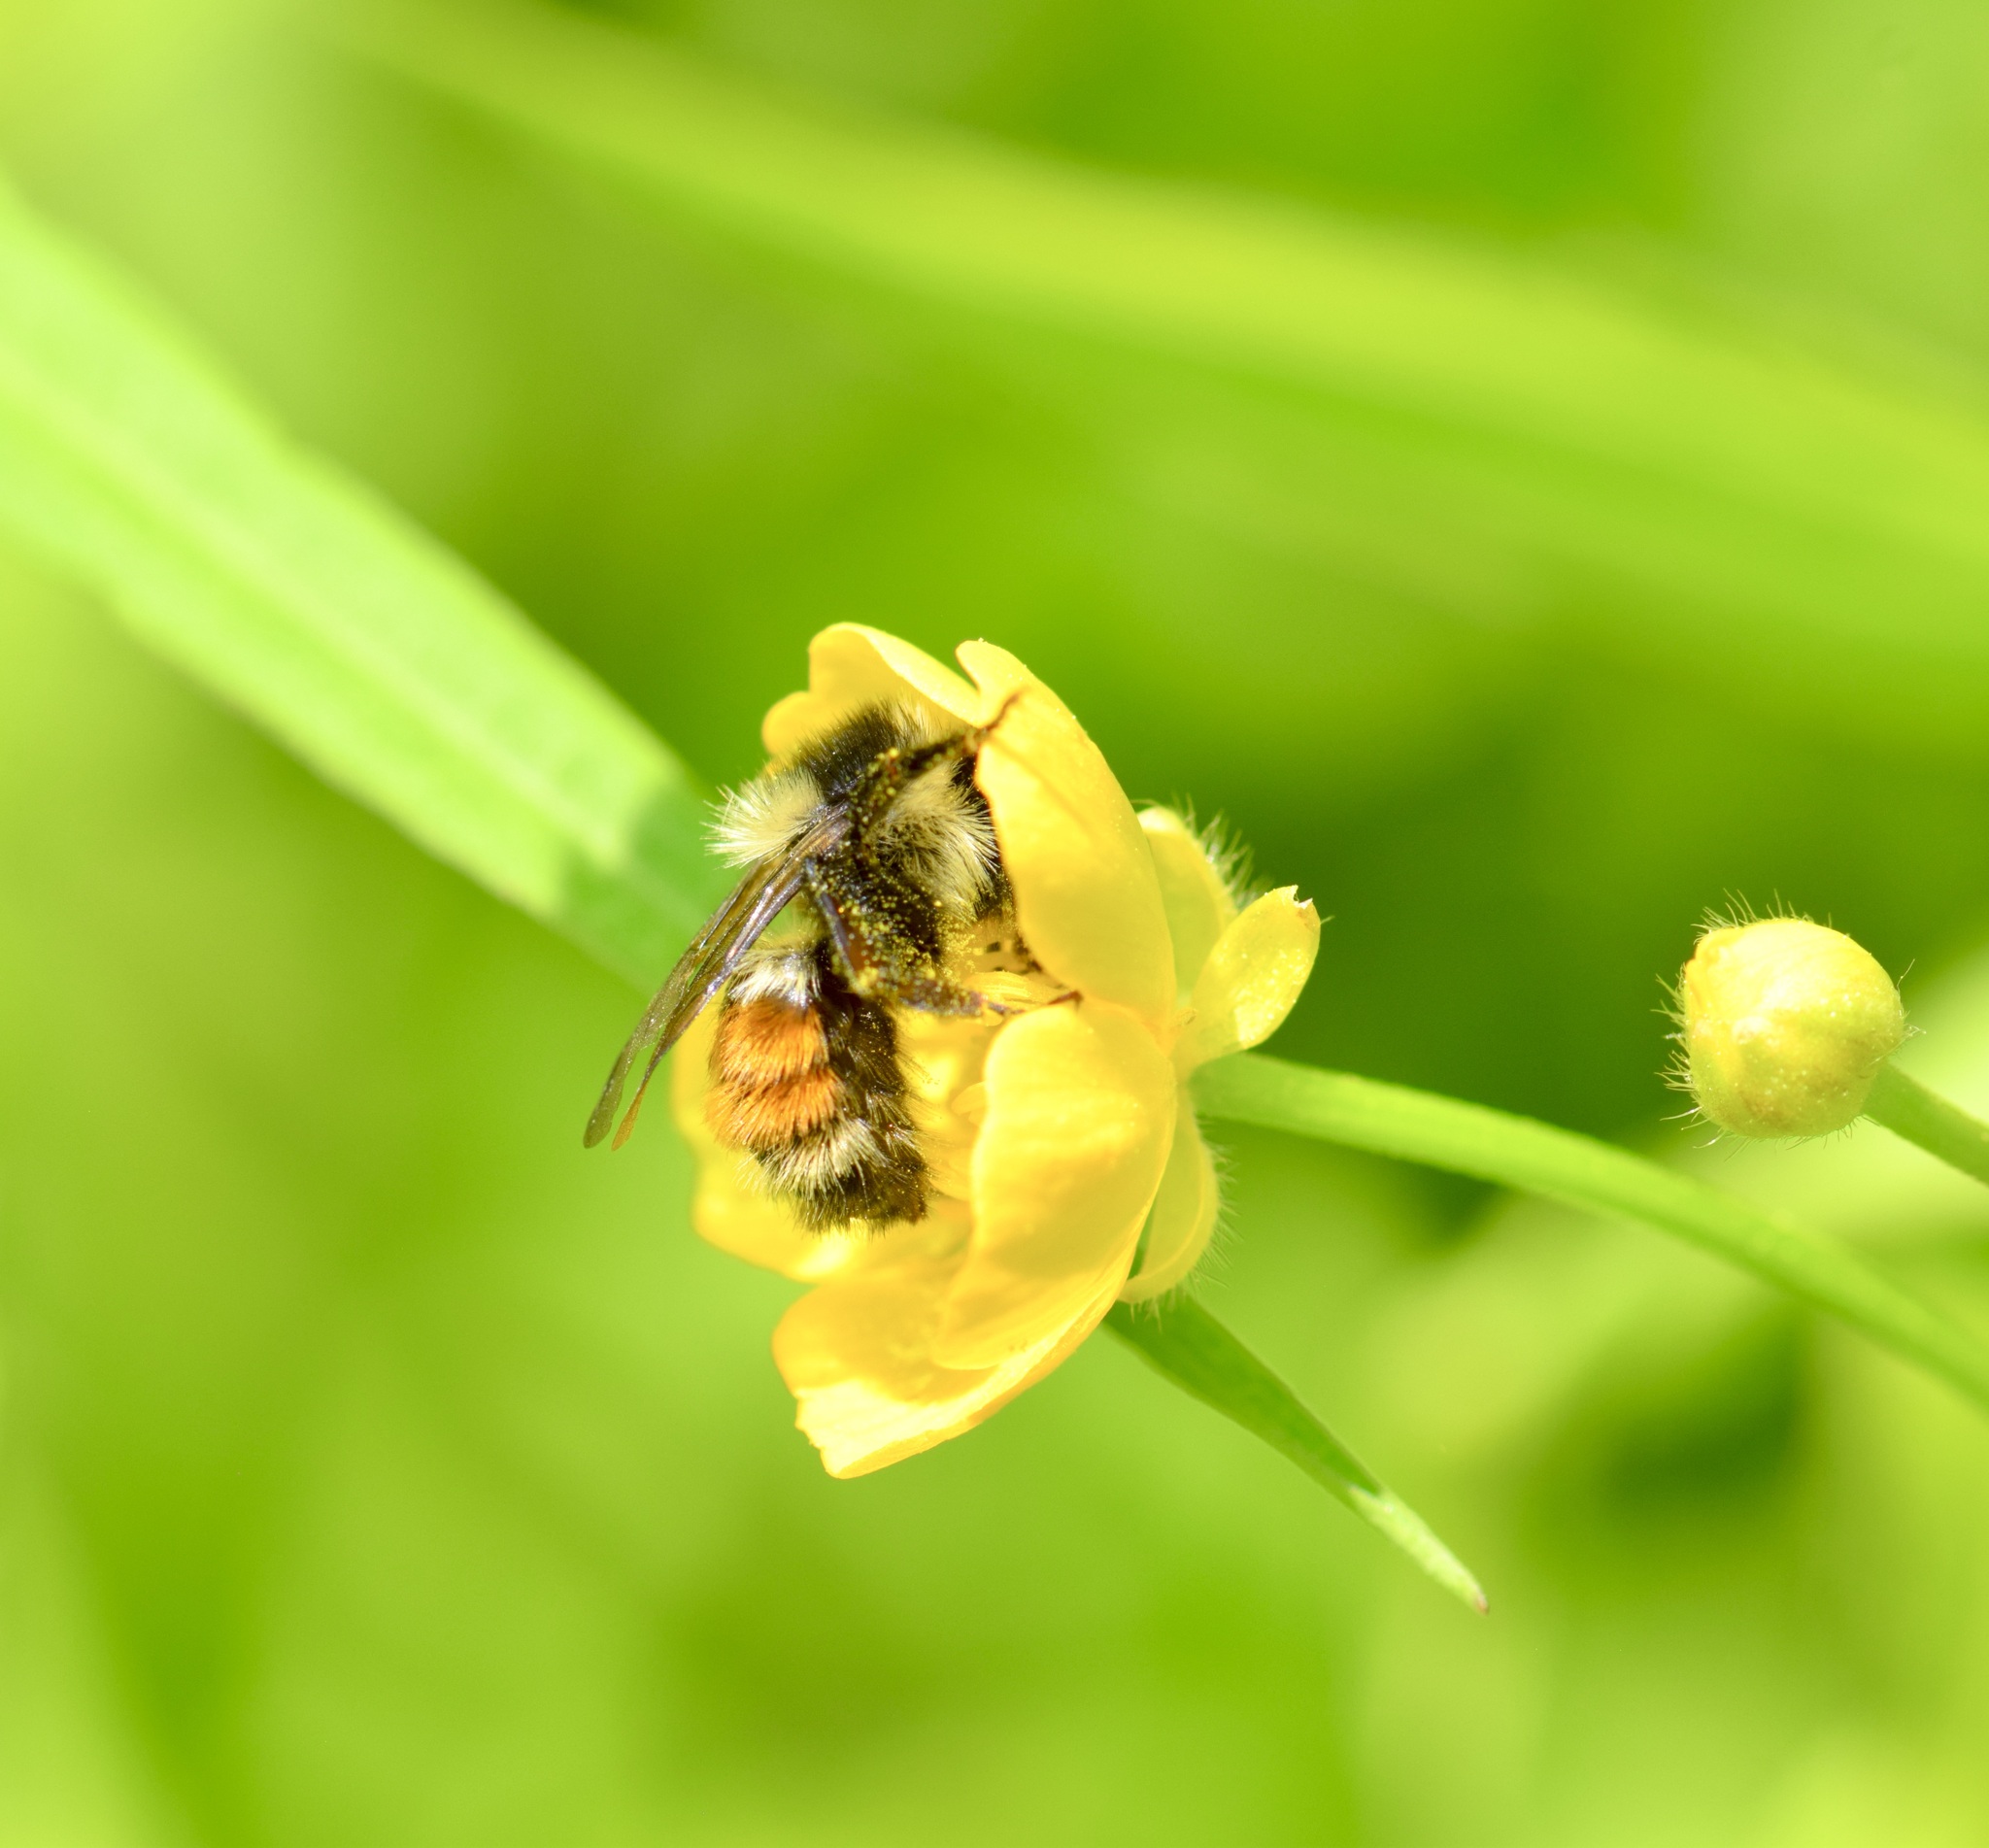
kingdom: Animalia
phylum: Arthropoda
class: Insecta
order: Hymenoptera
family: Apidae
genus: Bombus
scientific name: Bombus ternarius
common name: Tri-colored bumble bee
